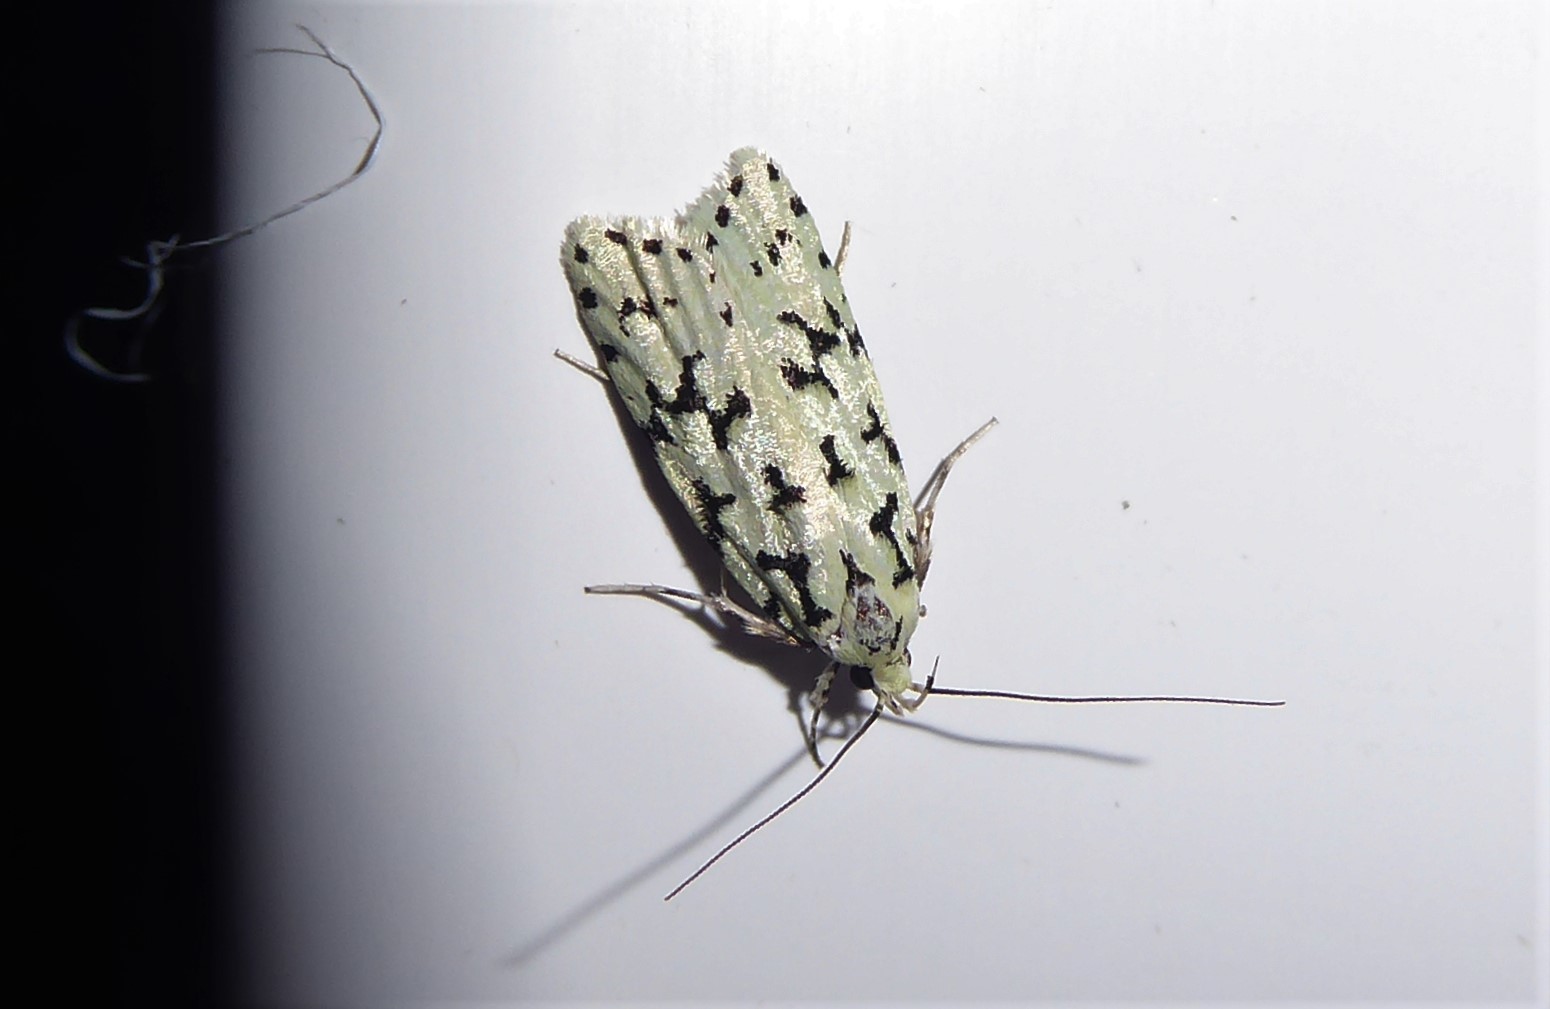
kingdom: Animalia
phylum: Arthropoda
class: Insecta
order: Lepidoptera
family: Oecophoridae
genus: Izatha
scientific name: Izatha huttoni
